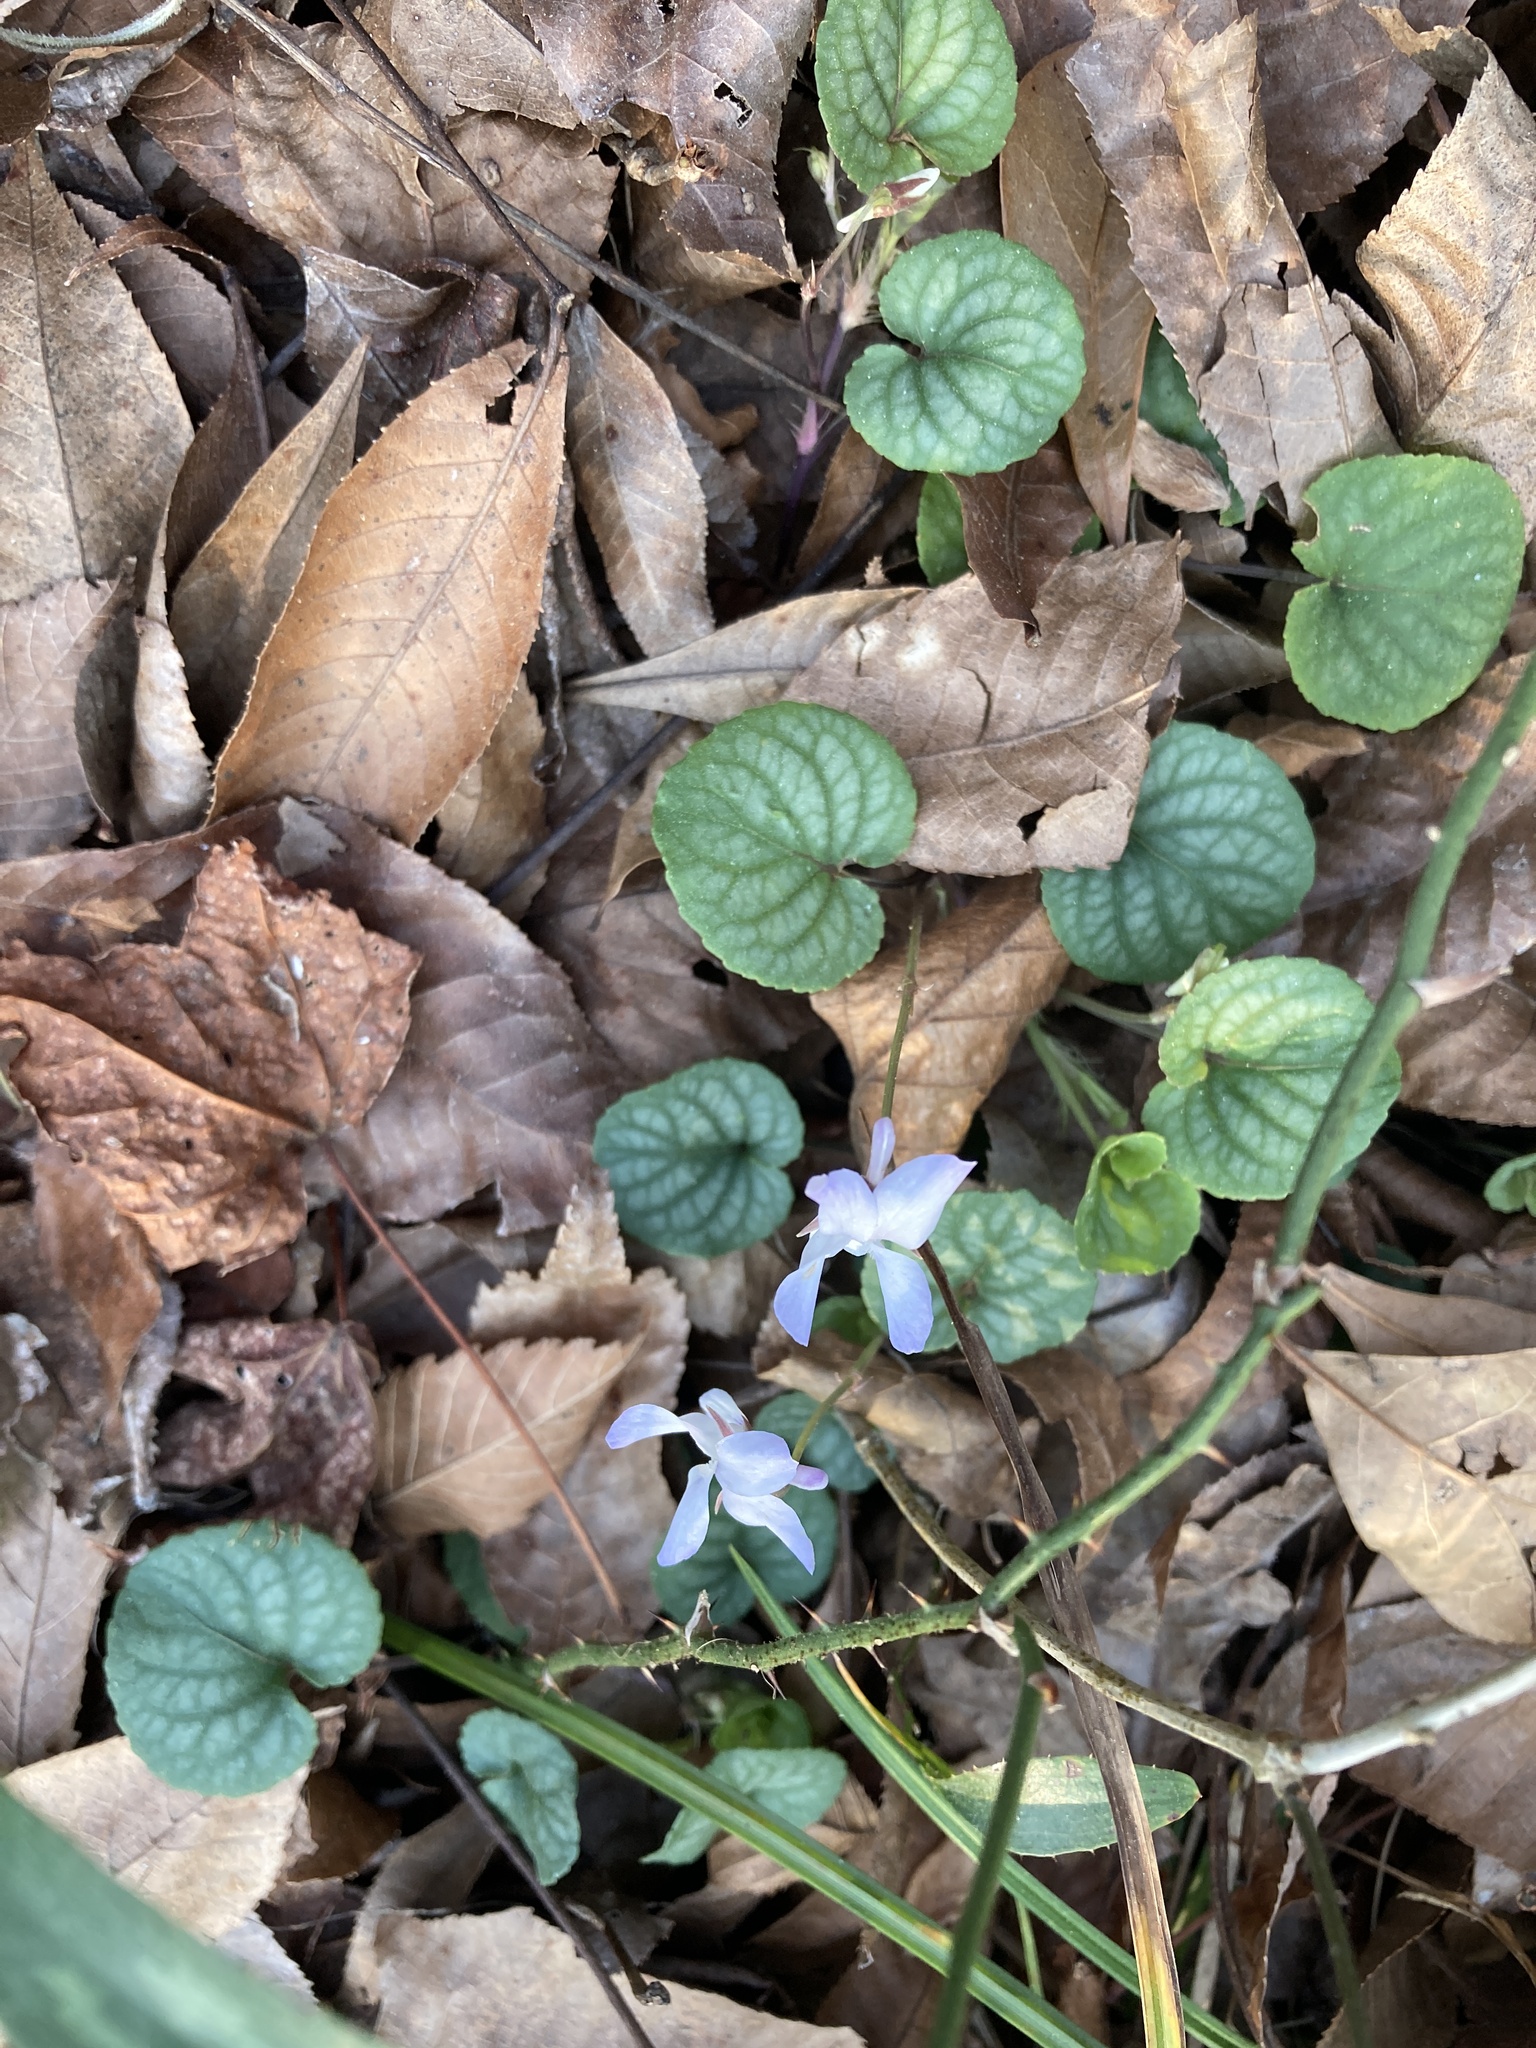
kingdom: Plantae
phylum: Tracheophyta
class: Magnoliopsida
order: Malpighiales
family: Violaceae
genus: Viola
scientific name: Viola walteri
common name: Prostrate southern violet
